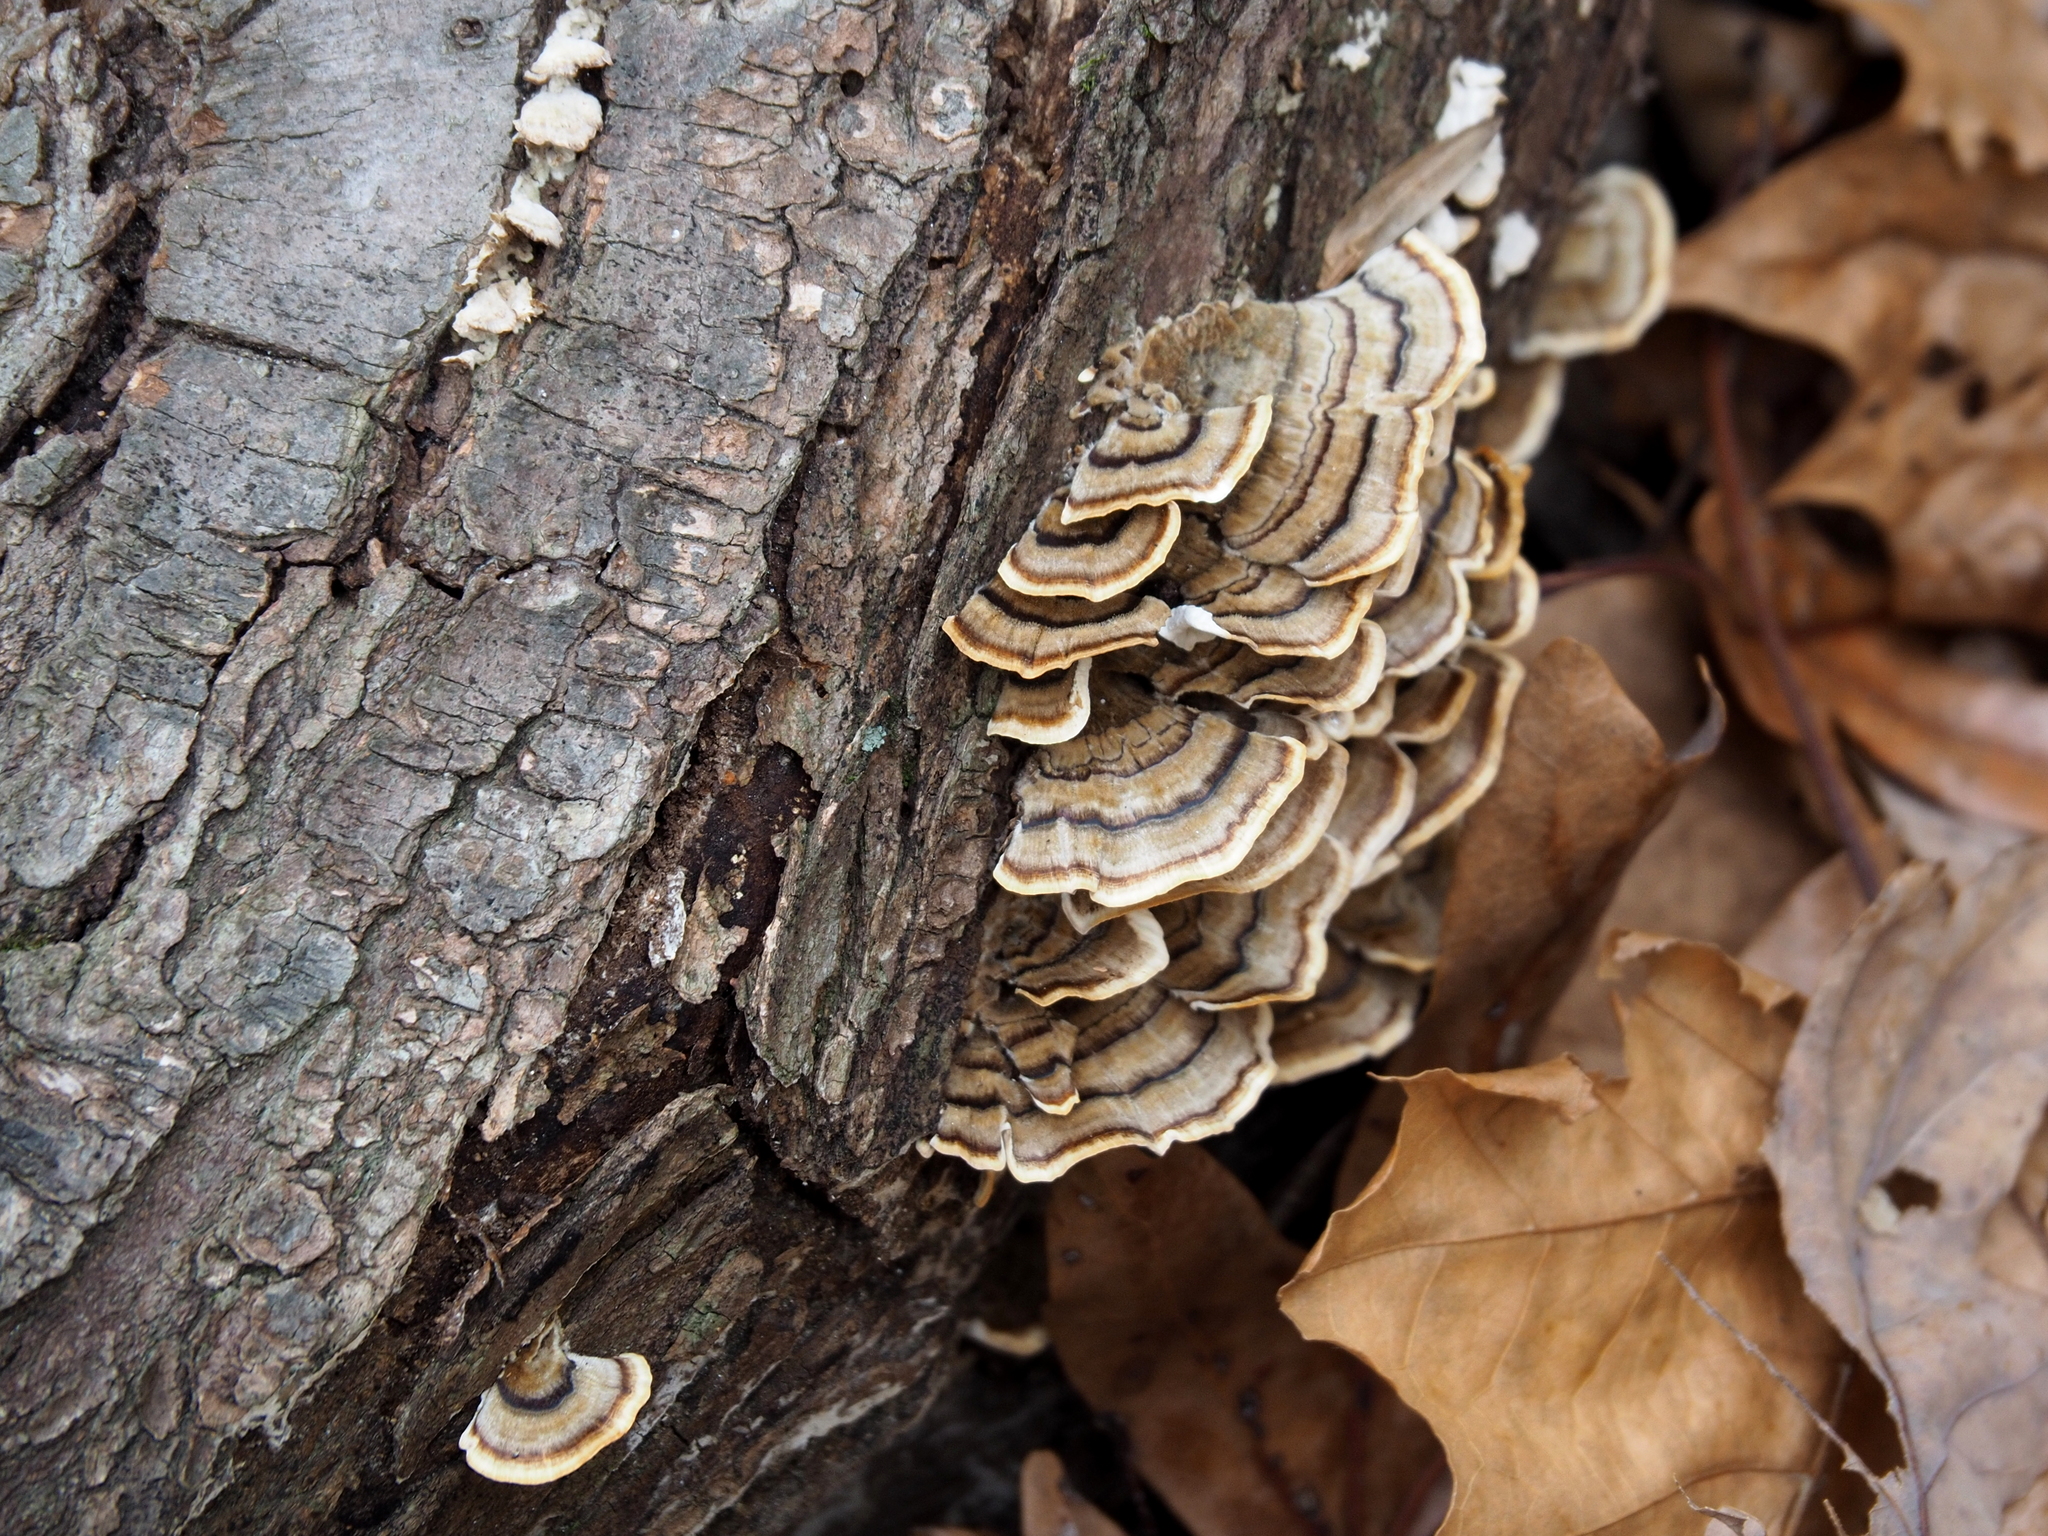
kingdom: Fungi
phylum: Basidiomycota
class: Agaricomycetes
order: Polyporales
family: Polyporaceae
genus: Trametes
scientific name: Trametes versicolor
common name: Turkeytail
